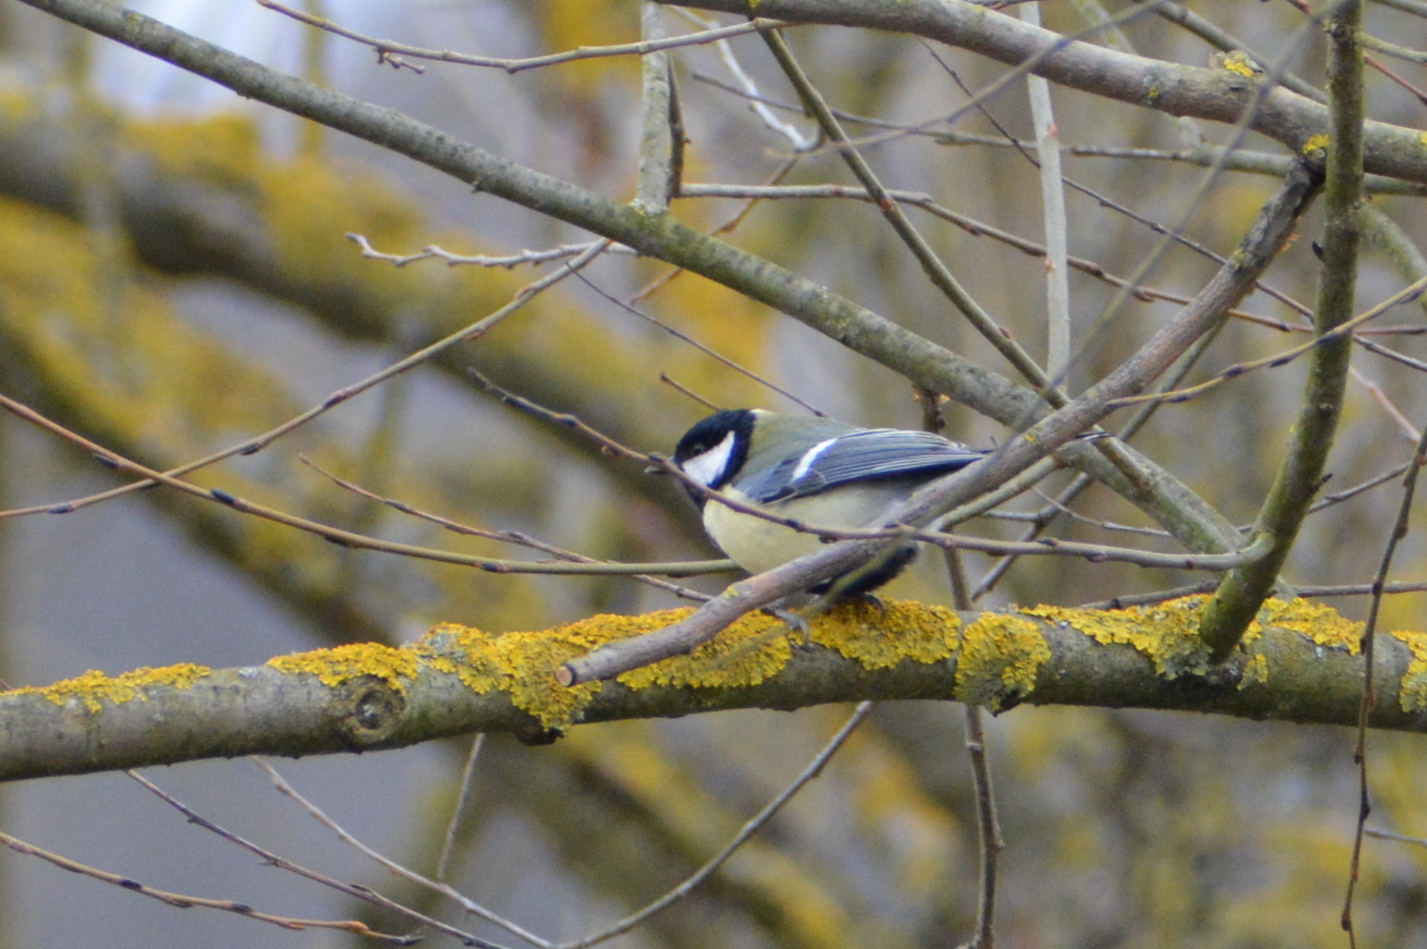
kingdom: Animalia
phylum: Chordata
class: Aves
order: Passeriformes
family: Paridae
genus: Parus
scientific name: Parus major
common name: Great tit
